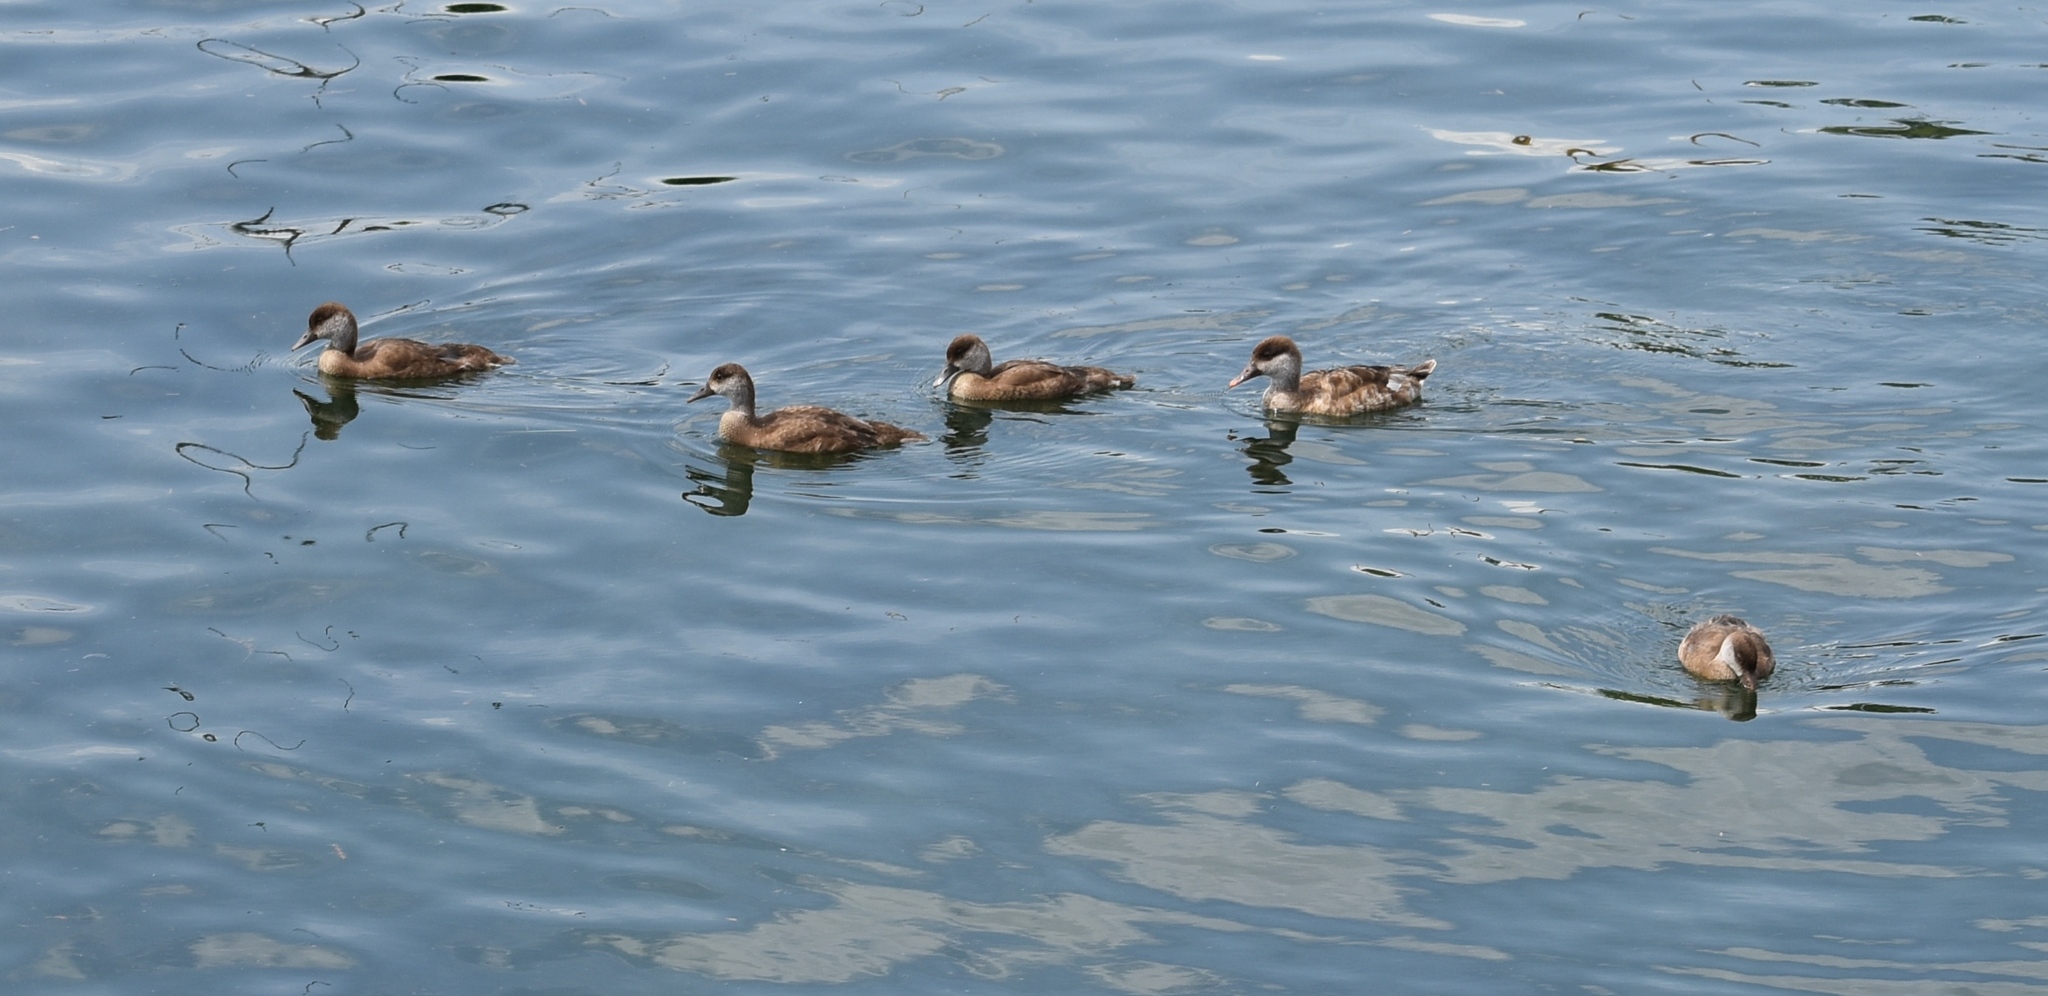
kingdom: Animalia
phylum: Chordata
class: Aves
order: Anseriformes
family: Anatidae
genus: Netta
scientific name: Netta rufina
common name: Red-crested pochard
